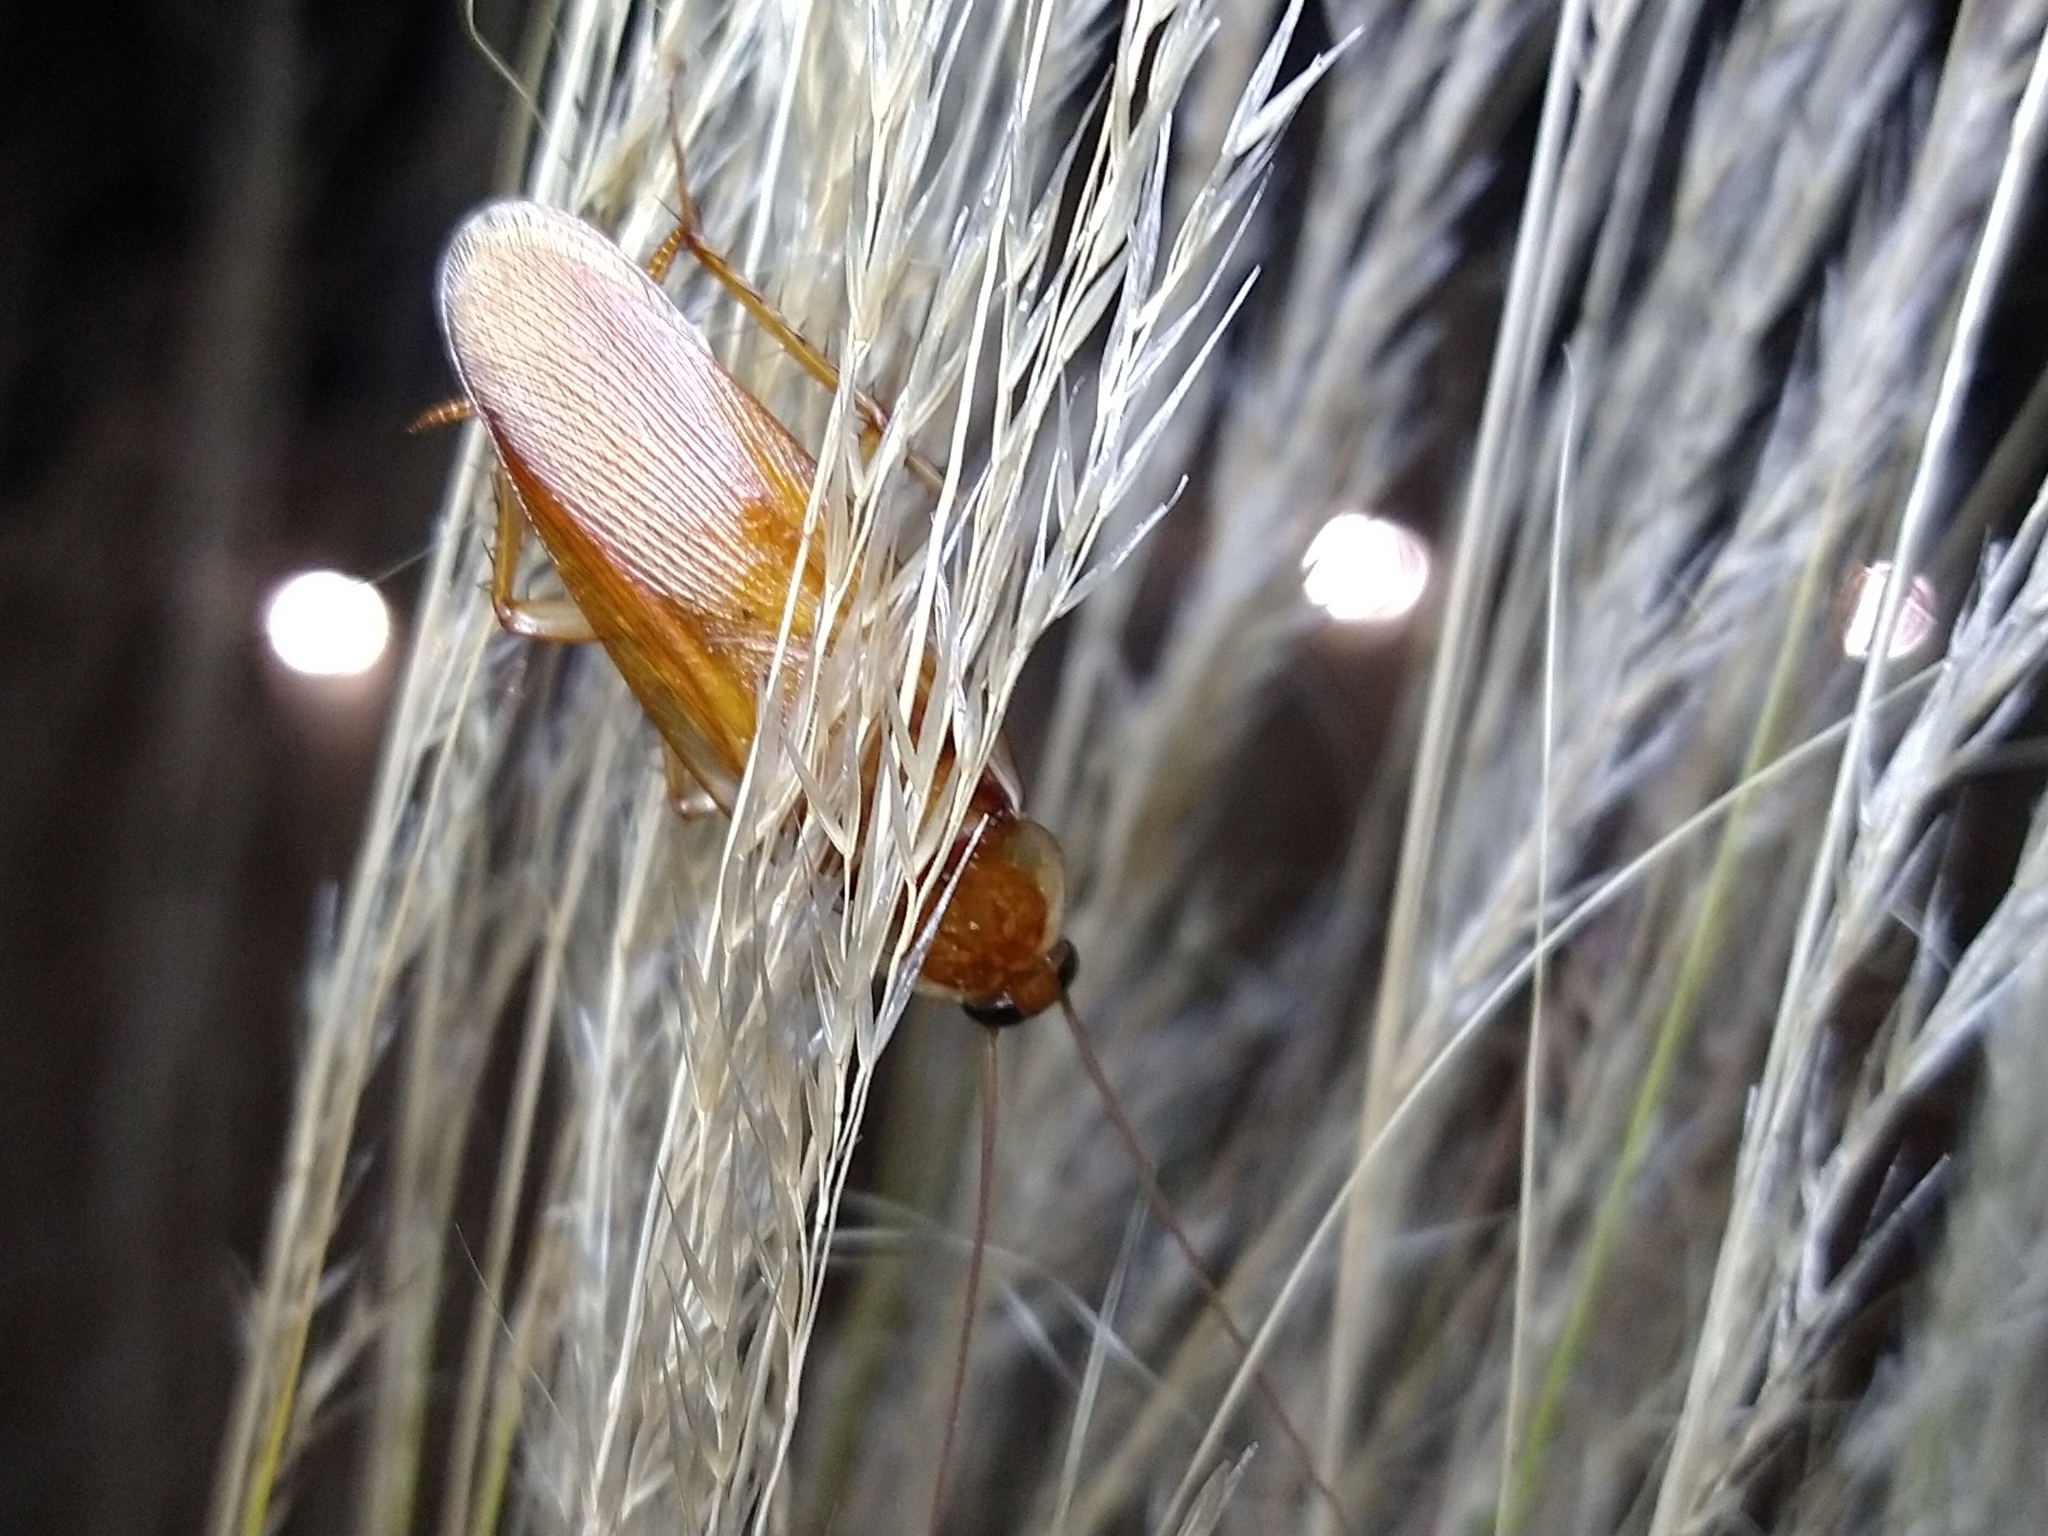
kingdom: Animalia
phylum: Arthropoda
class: Insecta
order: Blattodea
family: Blattidae
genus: Periplaneta
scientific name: Periplaneta lateralis
